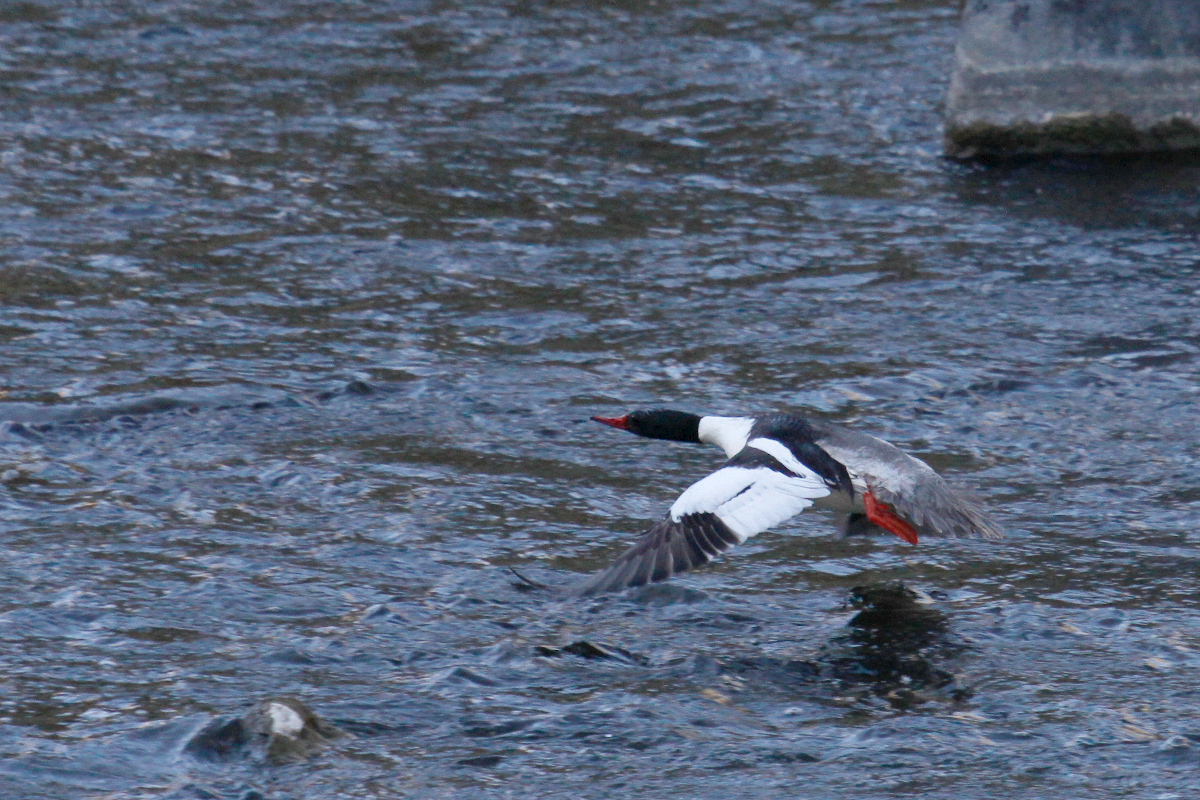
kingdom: Animalia
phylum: Chordata
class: Aves
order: Anseriformes
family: Anatidae
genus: Mergus
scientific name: Mergus merganser
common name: Common merganser
